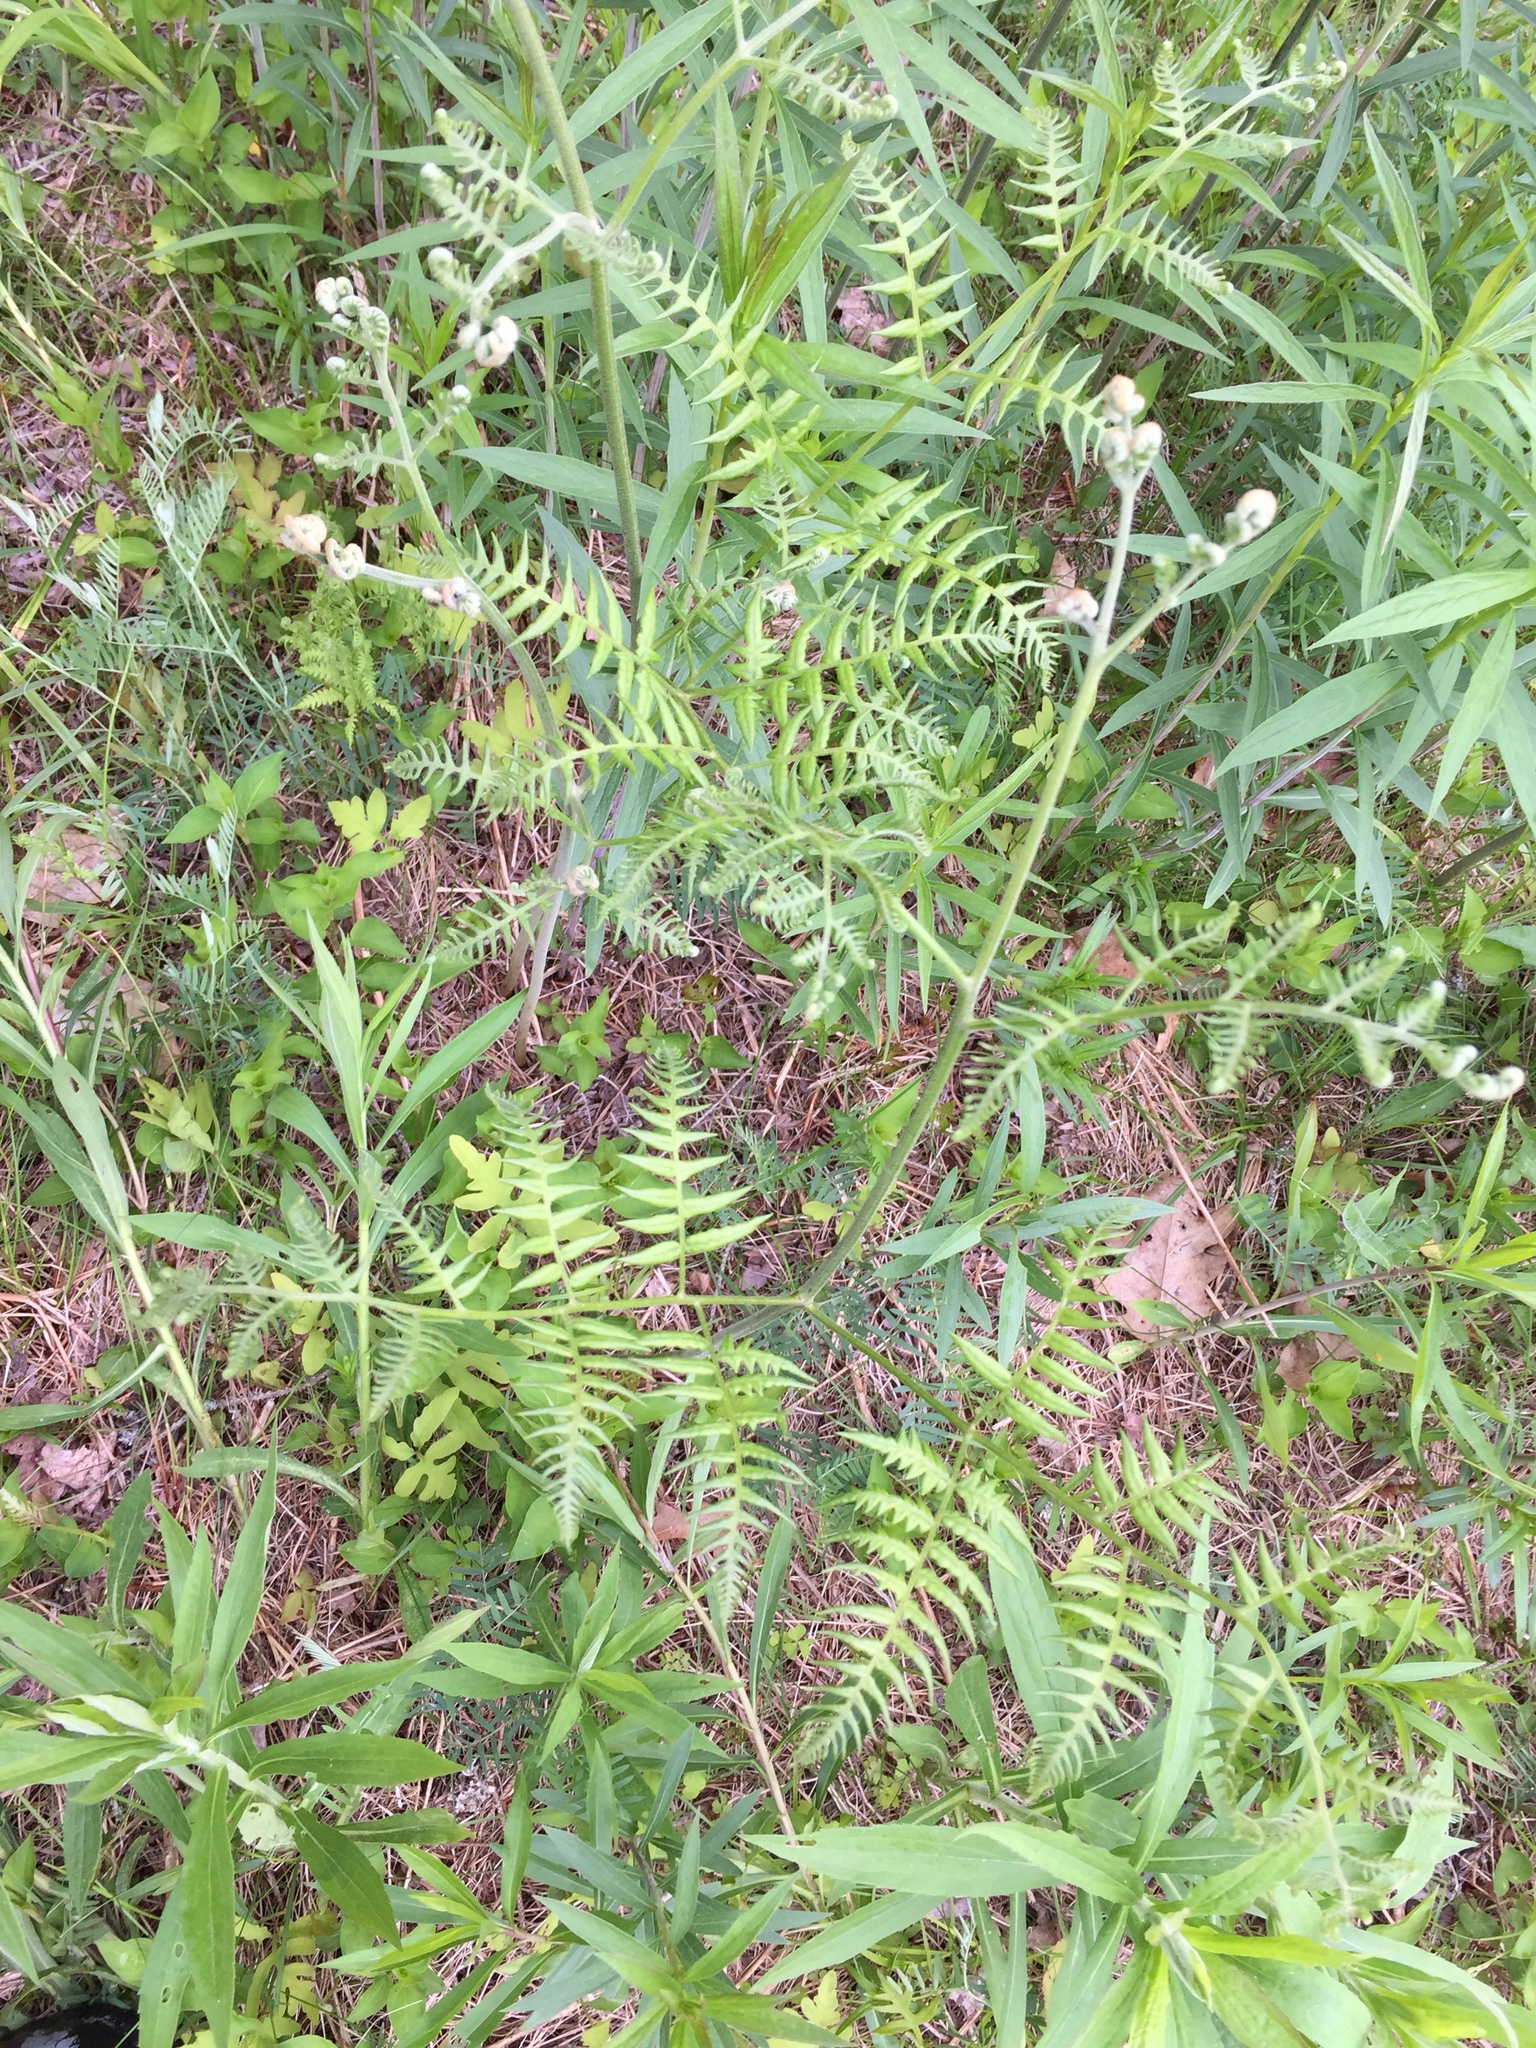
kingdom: Plantae
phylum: Tracheophyta
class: Polypodiopsida
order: Polypodiales
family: Dennstaedtiaceae
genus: Pteridium
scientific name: Pteridium aquilinum
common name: Bracken
